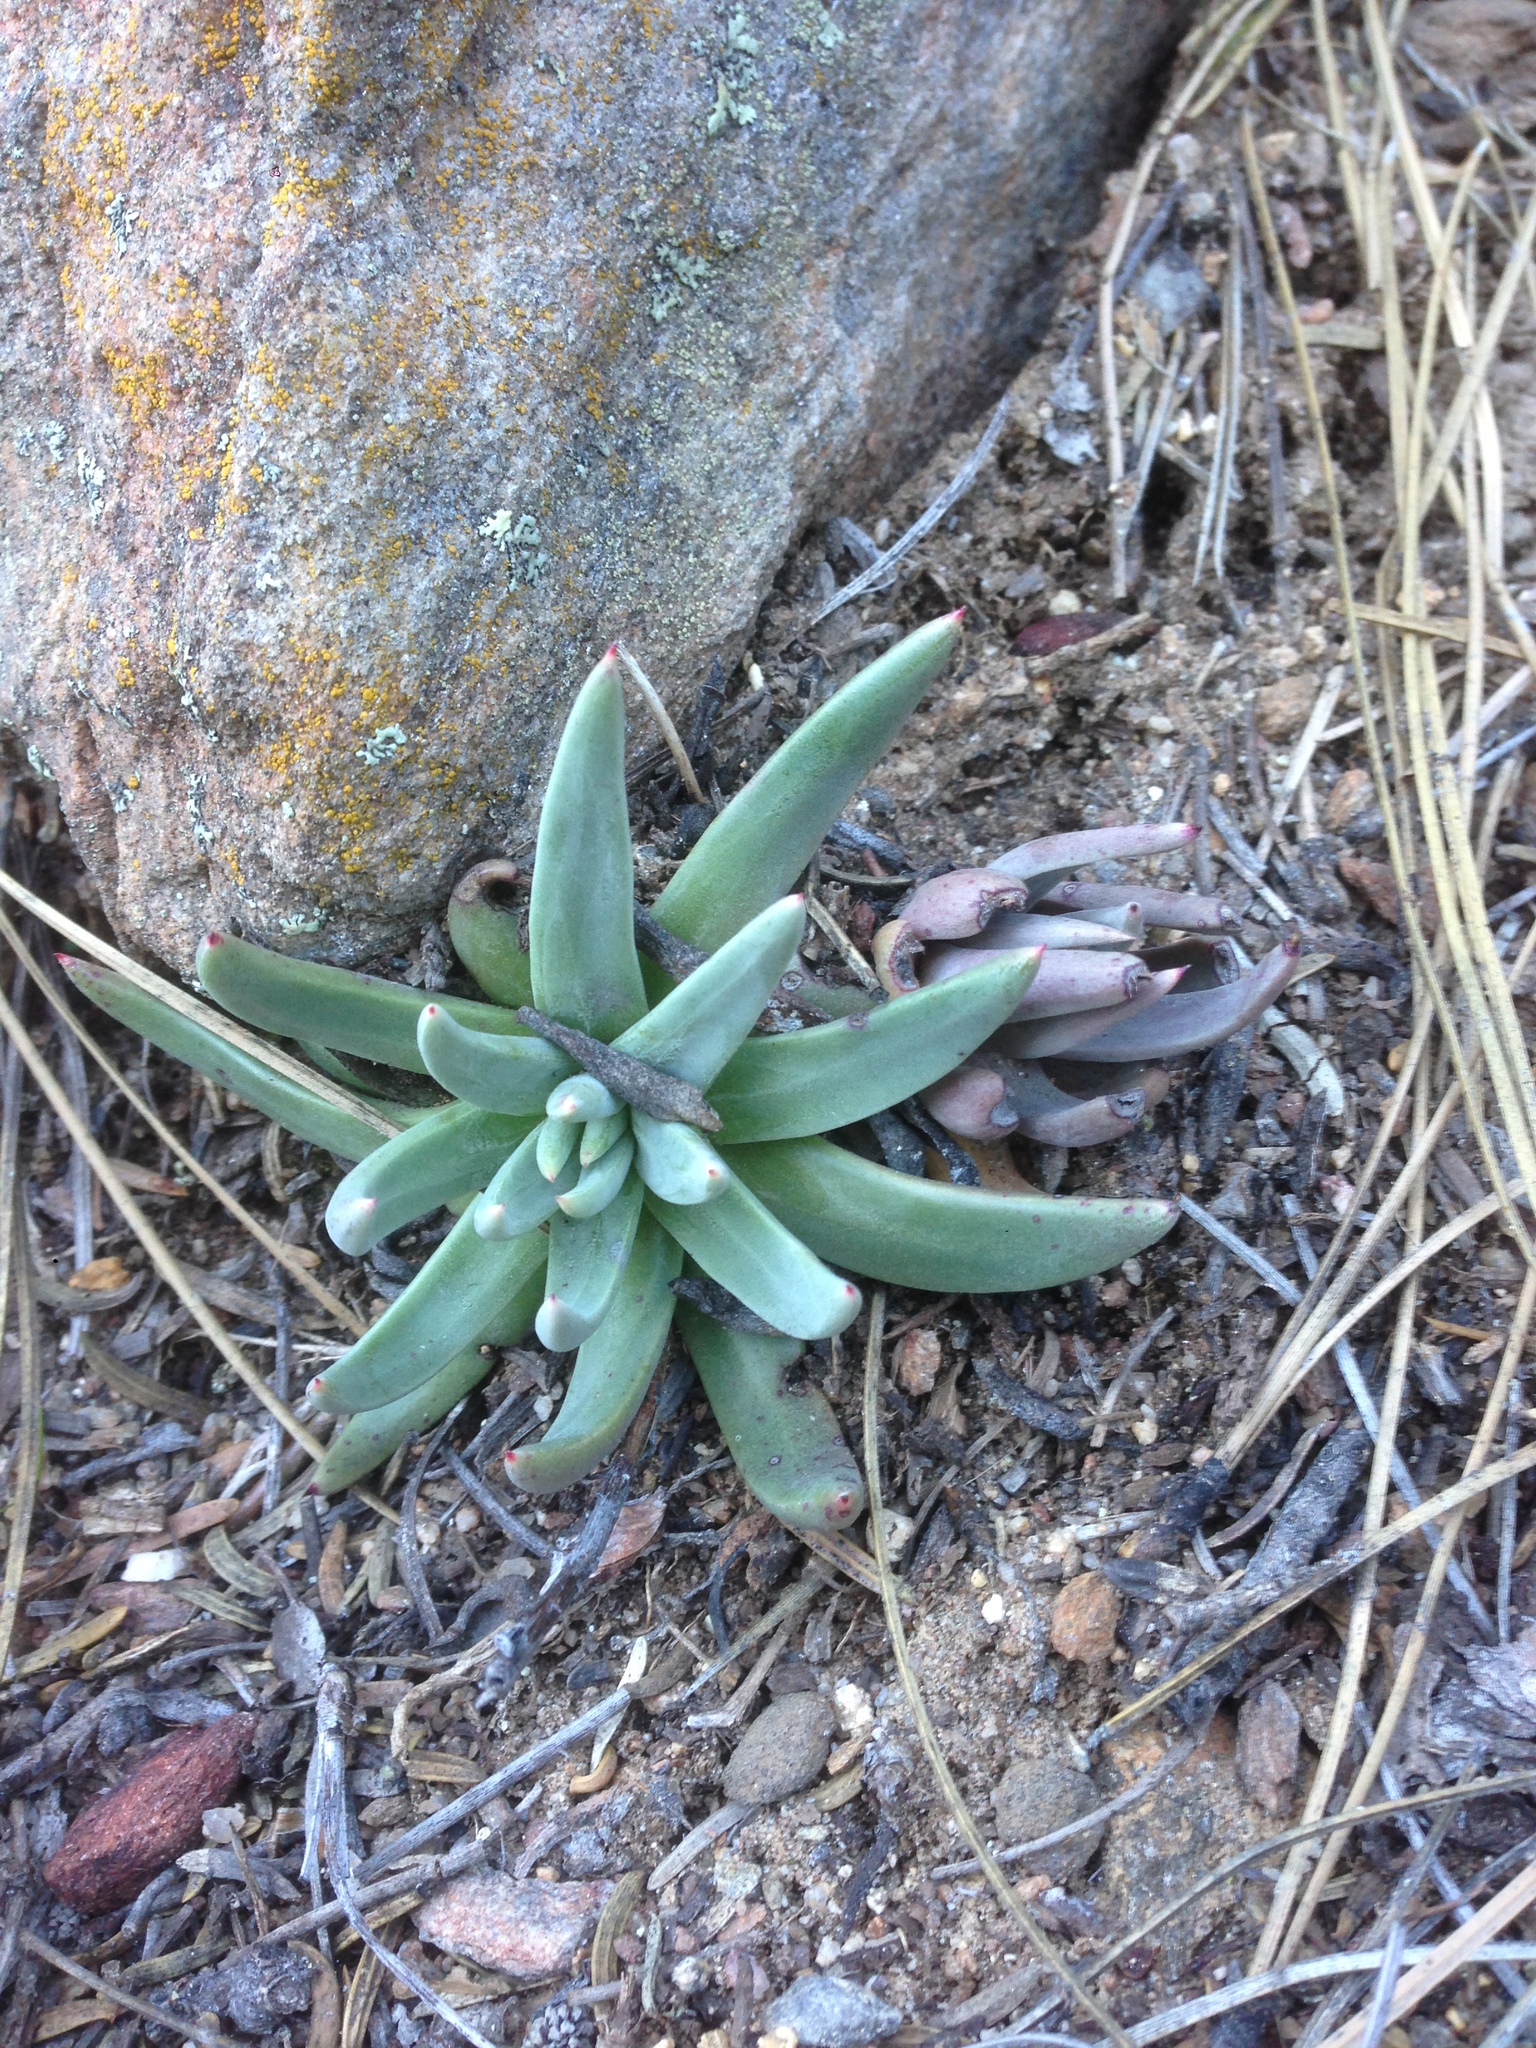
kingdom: Plantae
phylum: Tracheophyta
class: Magnoliopsida
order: Saxifragales
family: Crassulaceae
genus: Dudleya
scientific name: Dudleya pauciflora
